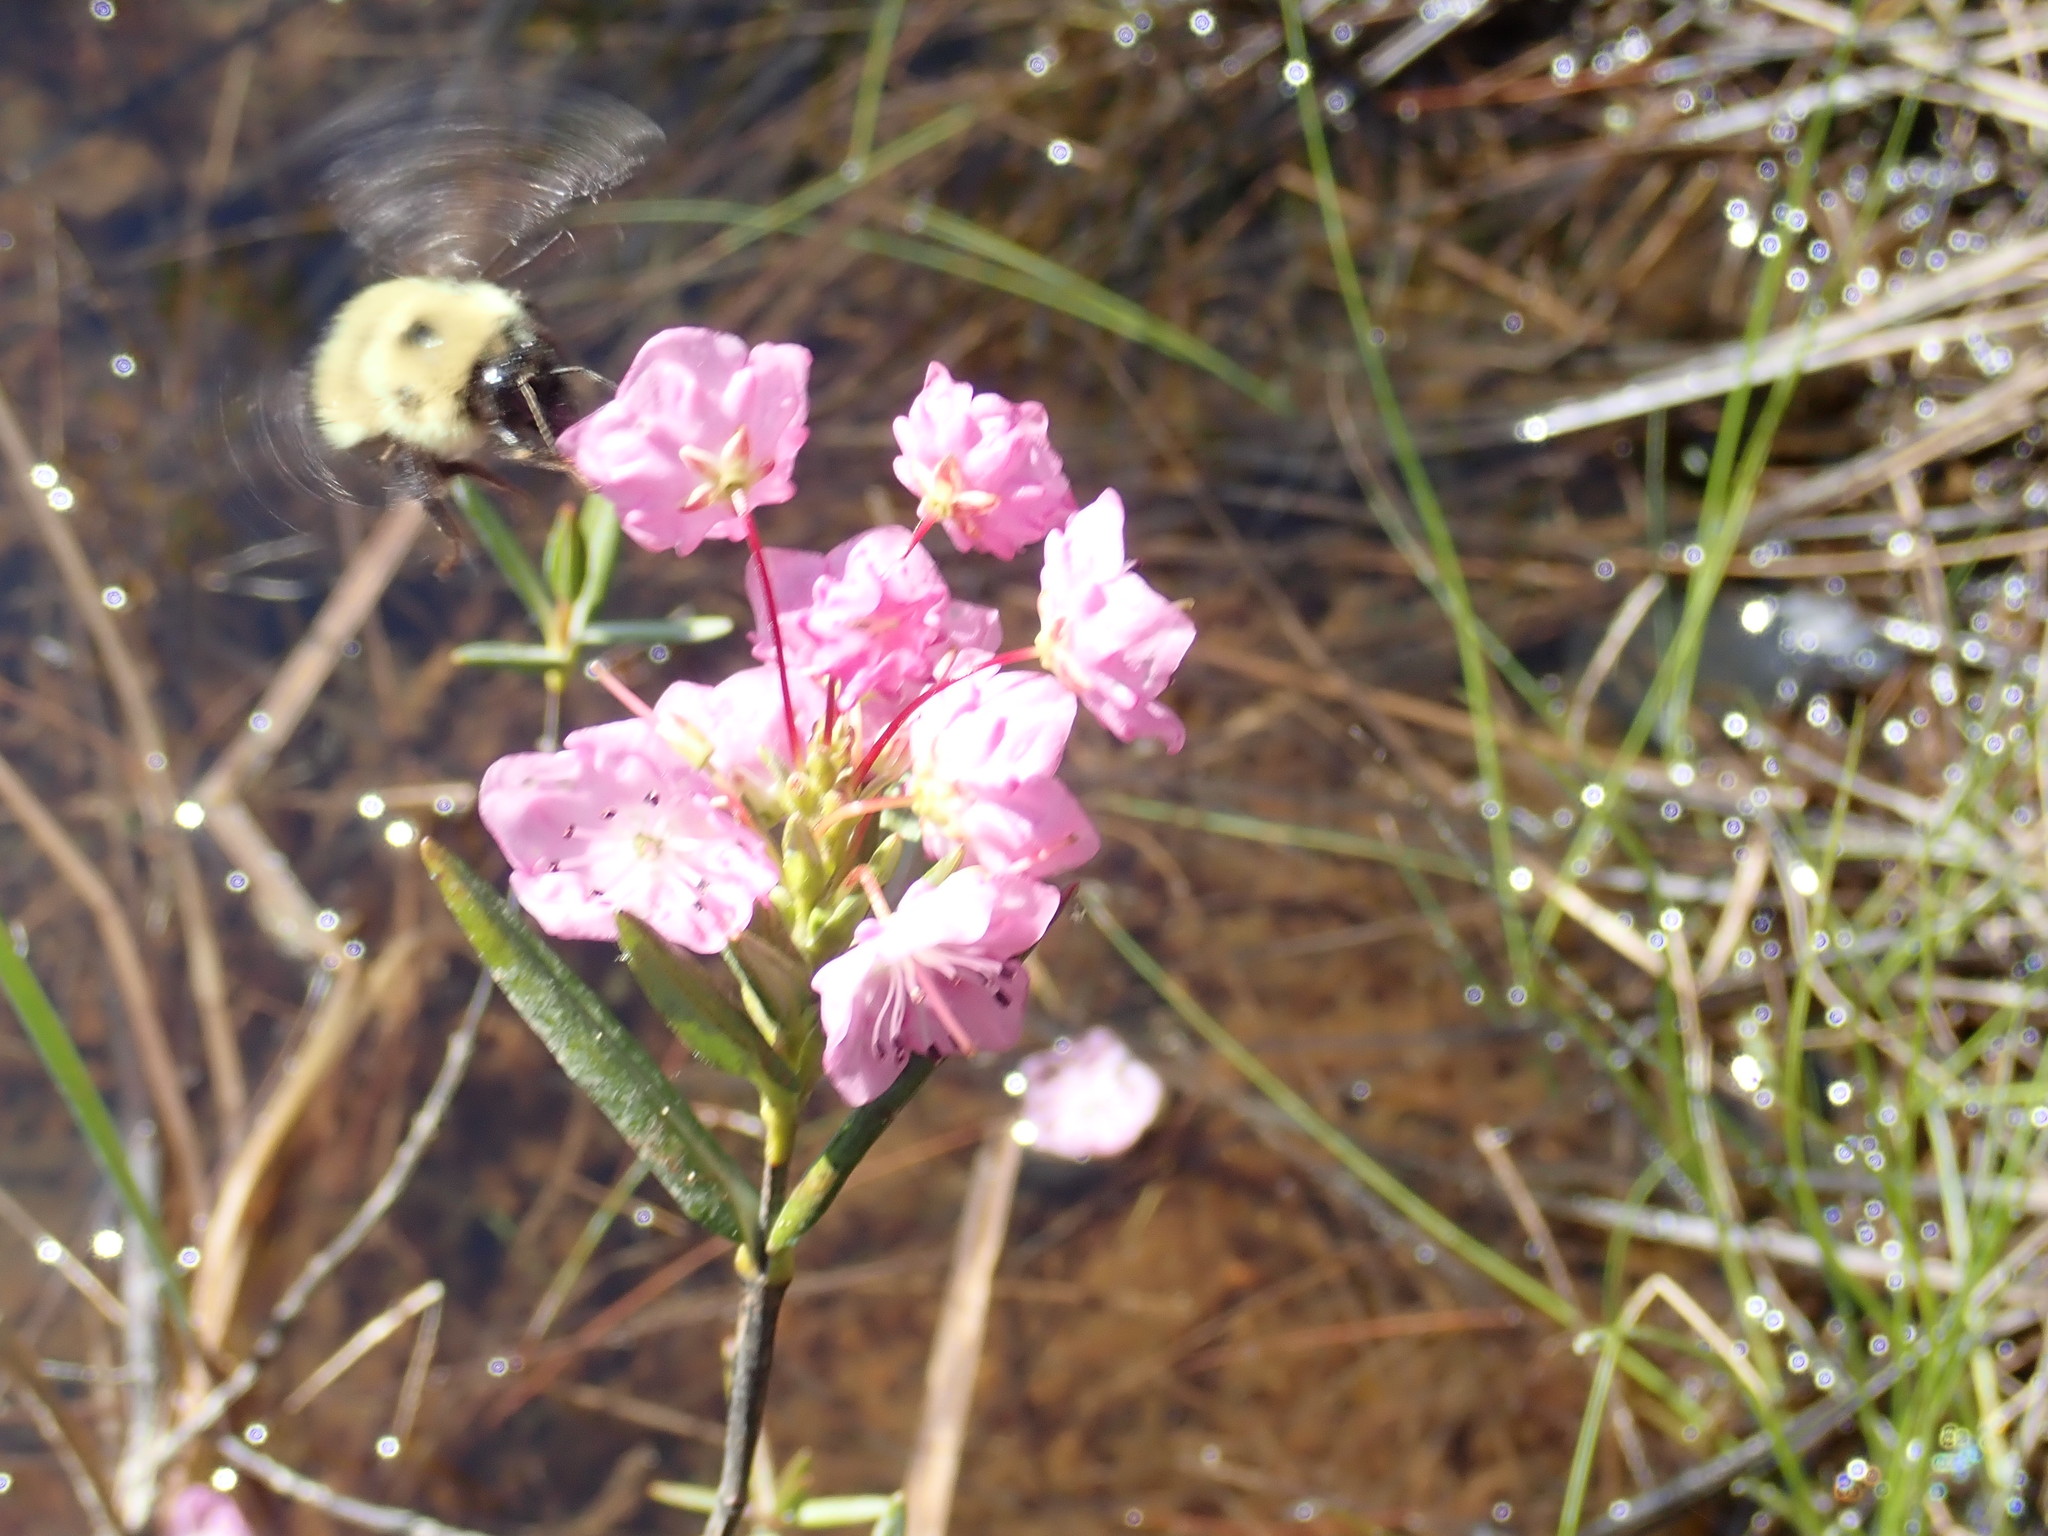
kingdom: Plantae
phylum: Tracheophyta
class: Magnoliopsida
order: Ericales
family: Ericaceae
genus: Kalmia
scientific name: Kalmia polifolia
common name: Bog-laurel
